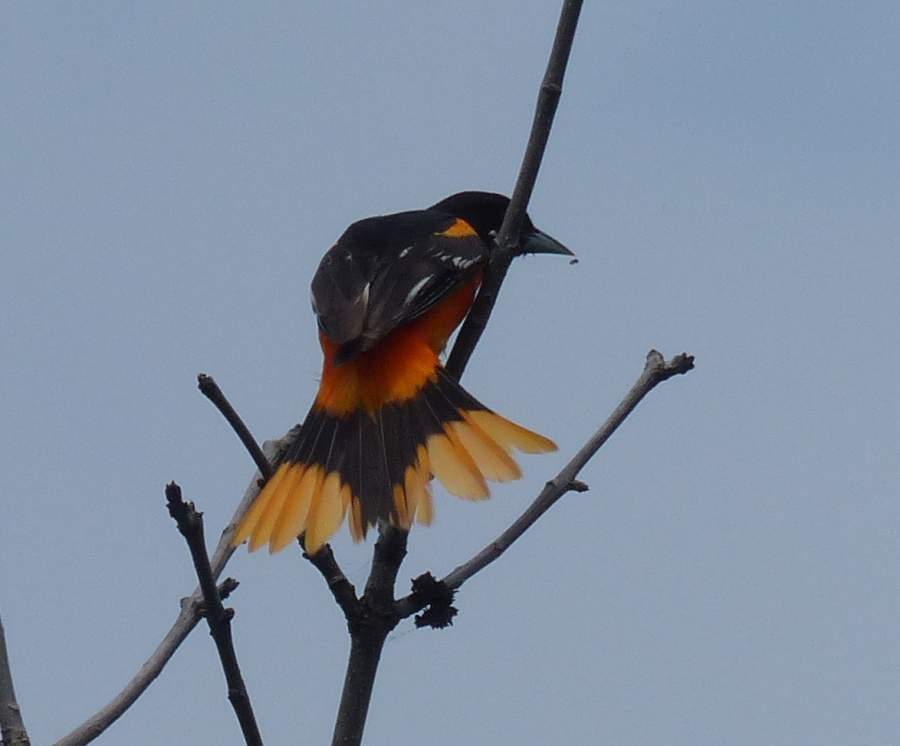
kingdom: Animalia
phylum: Chordata
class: Aves
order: Passeriformes
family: Icteridae
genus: Icterus
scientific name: Icterus galbula
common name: Baltimore oriole
